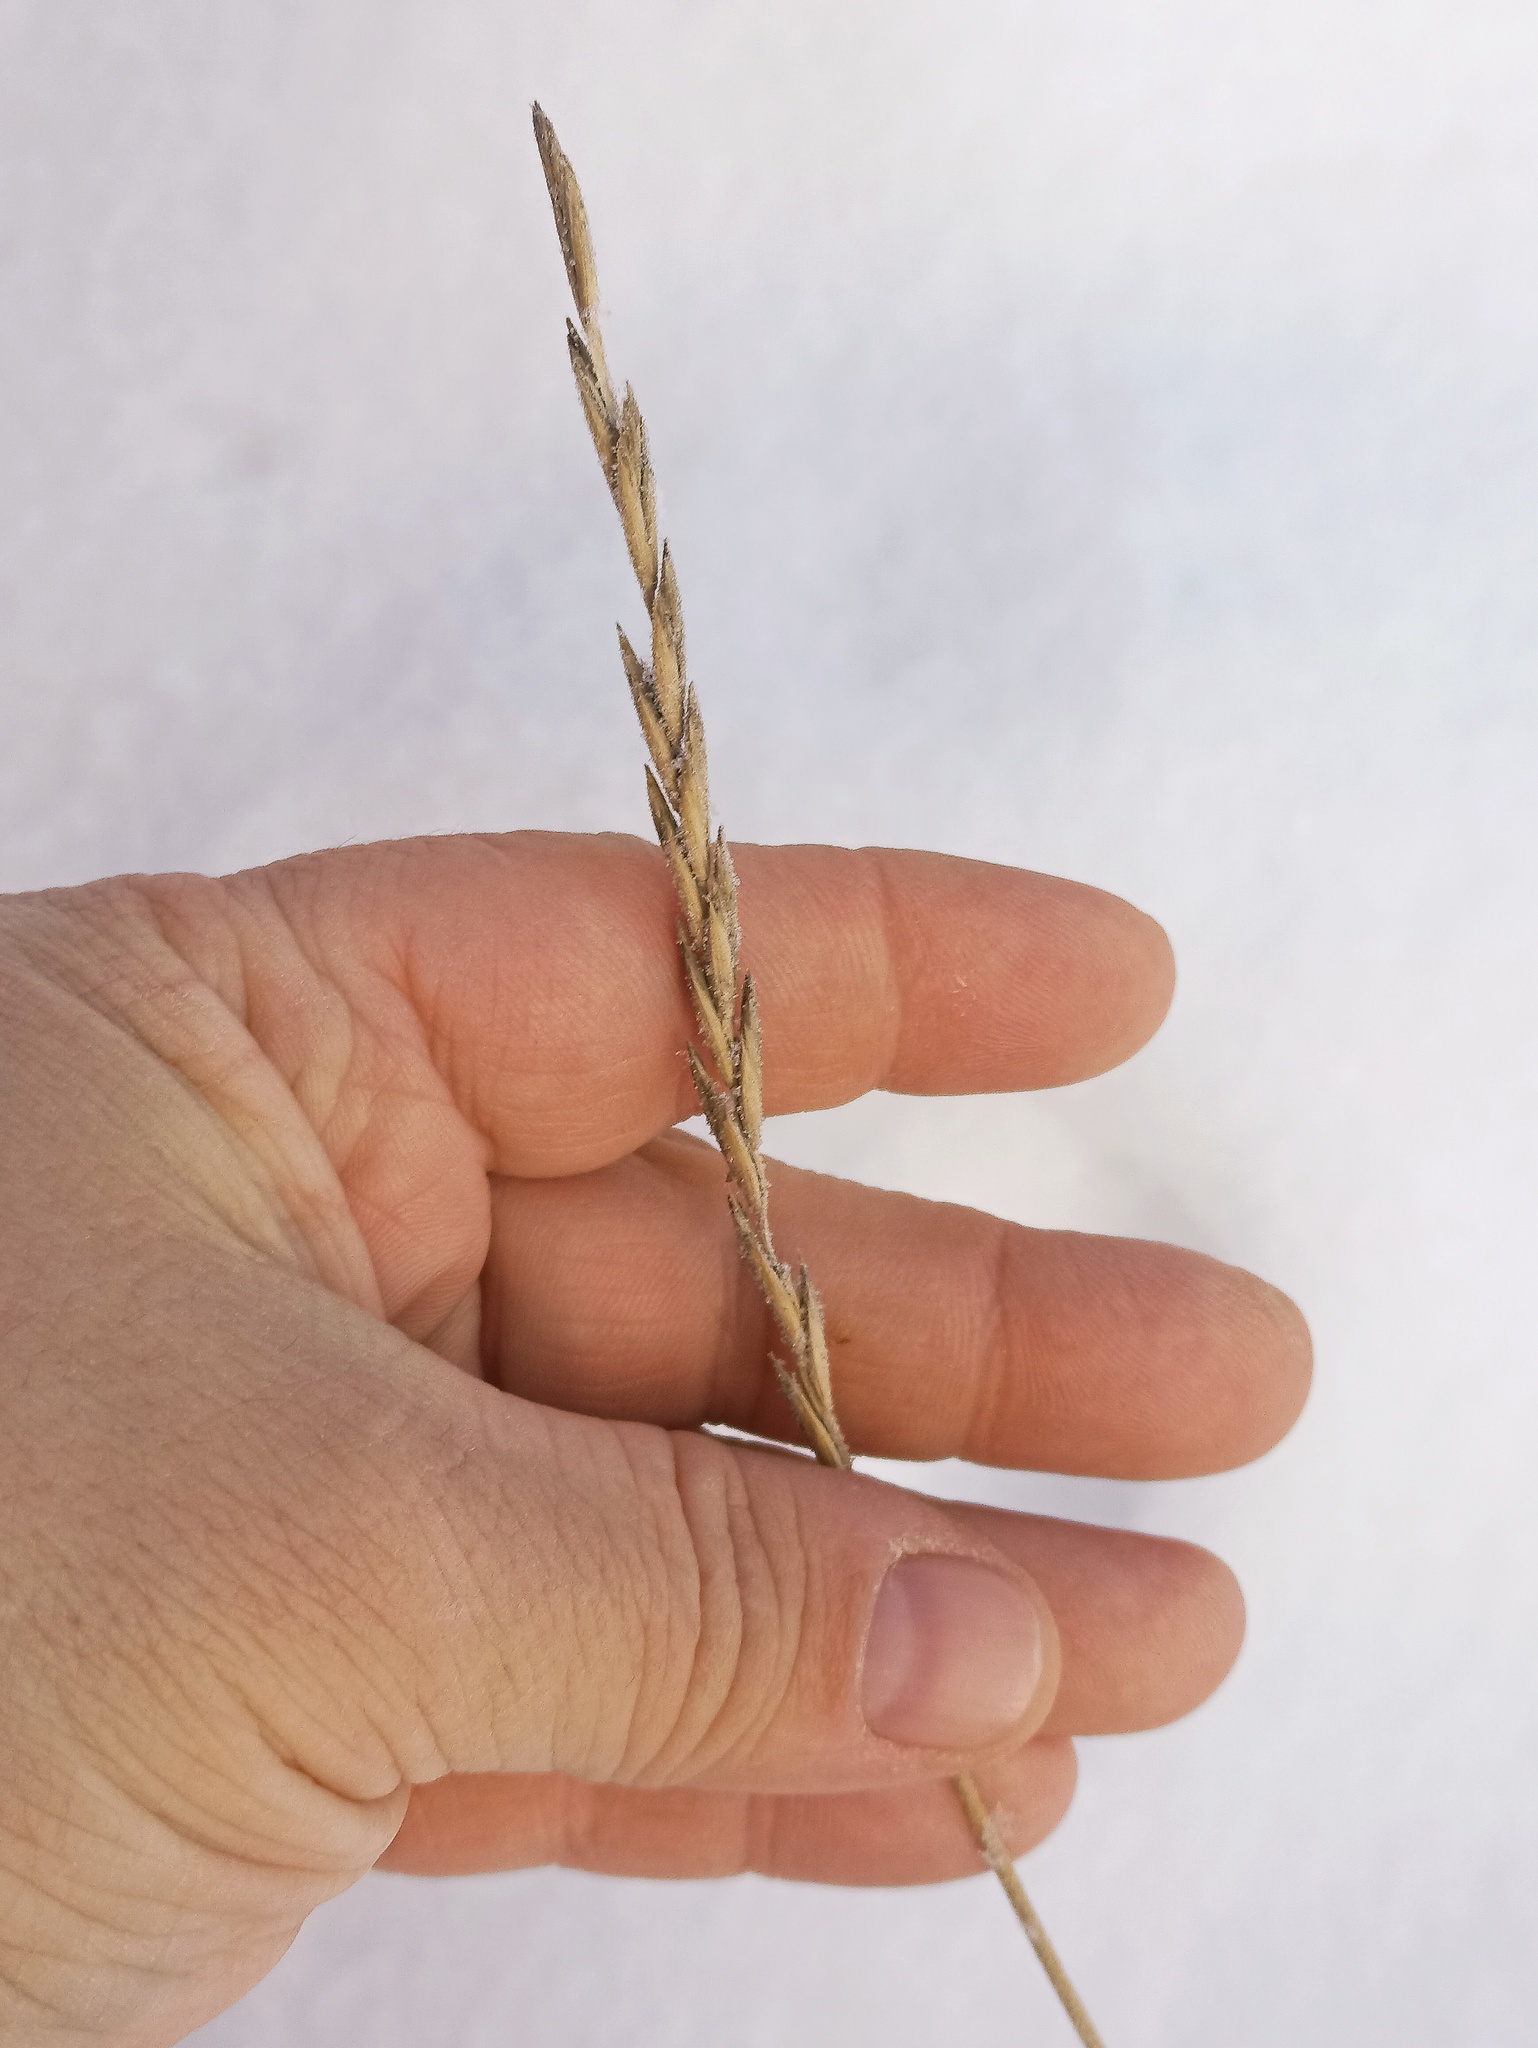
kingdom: Plantae
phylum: Tracheophyta
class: Liliopsida
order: Poales
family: Poaceae
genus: Elymus
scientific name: Elymus repens
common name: Quackgrass
